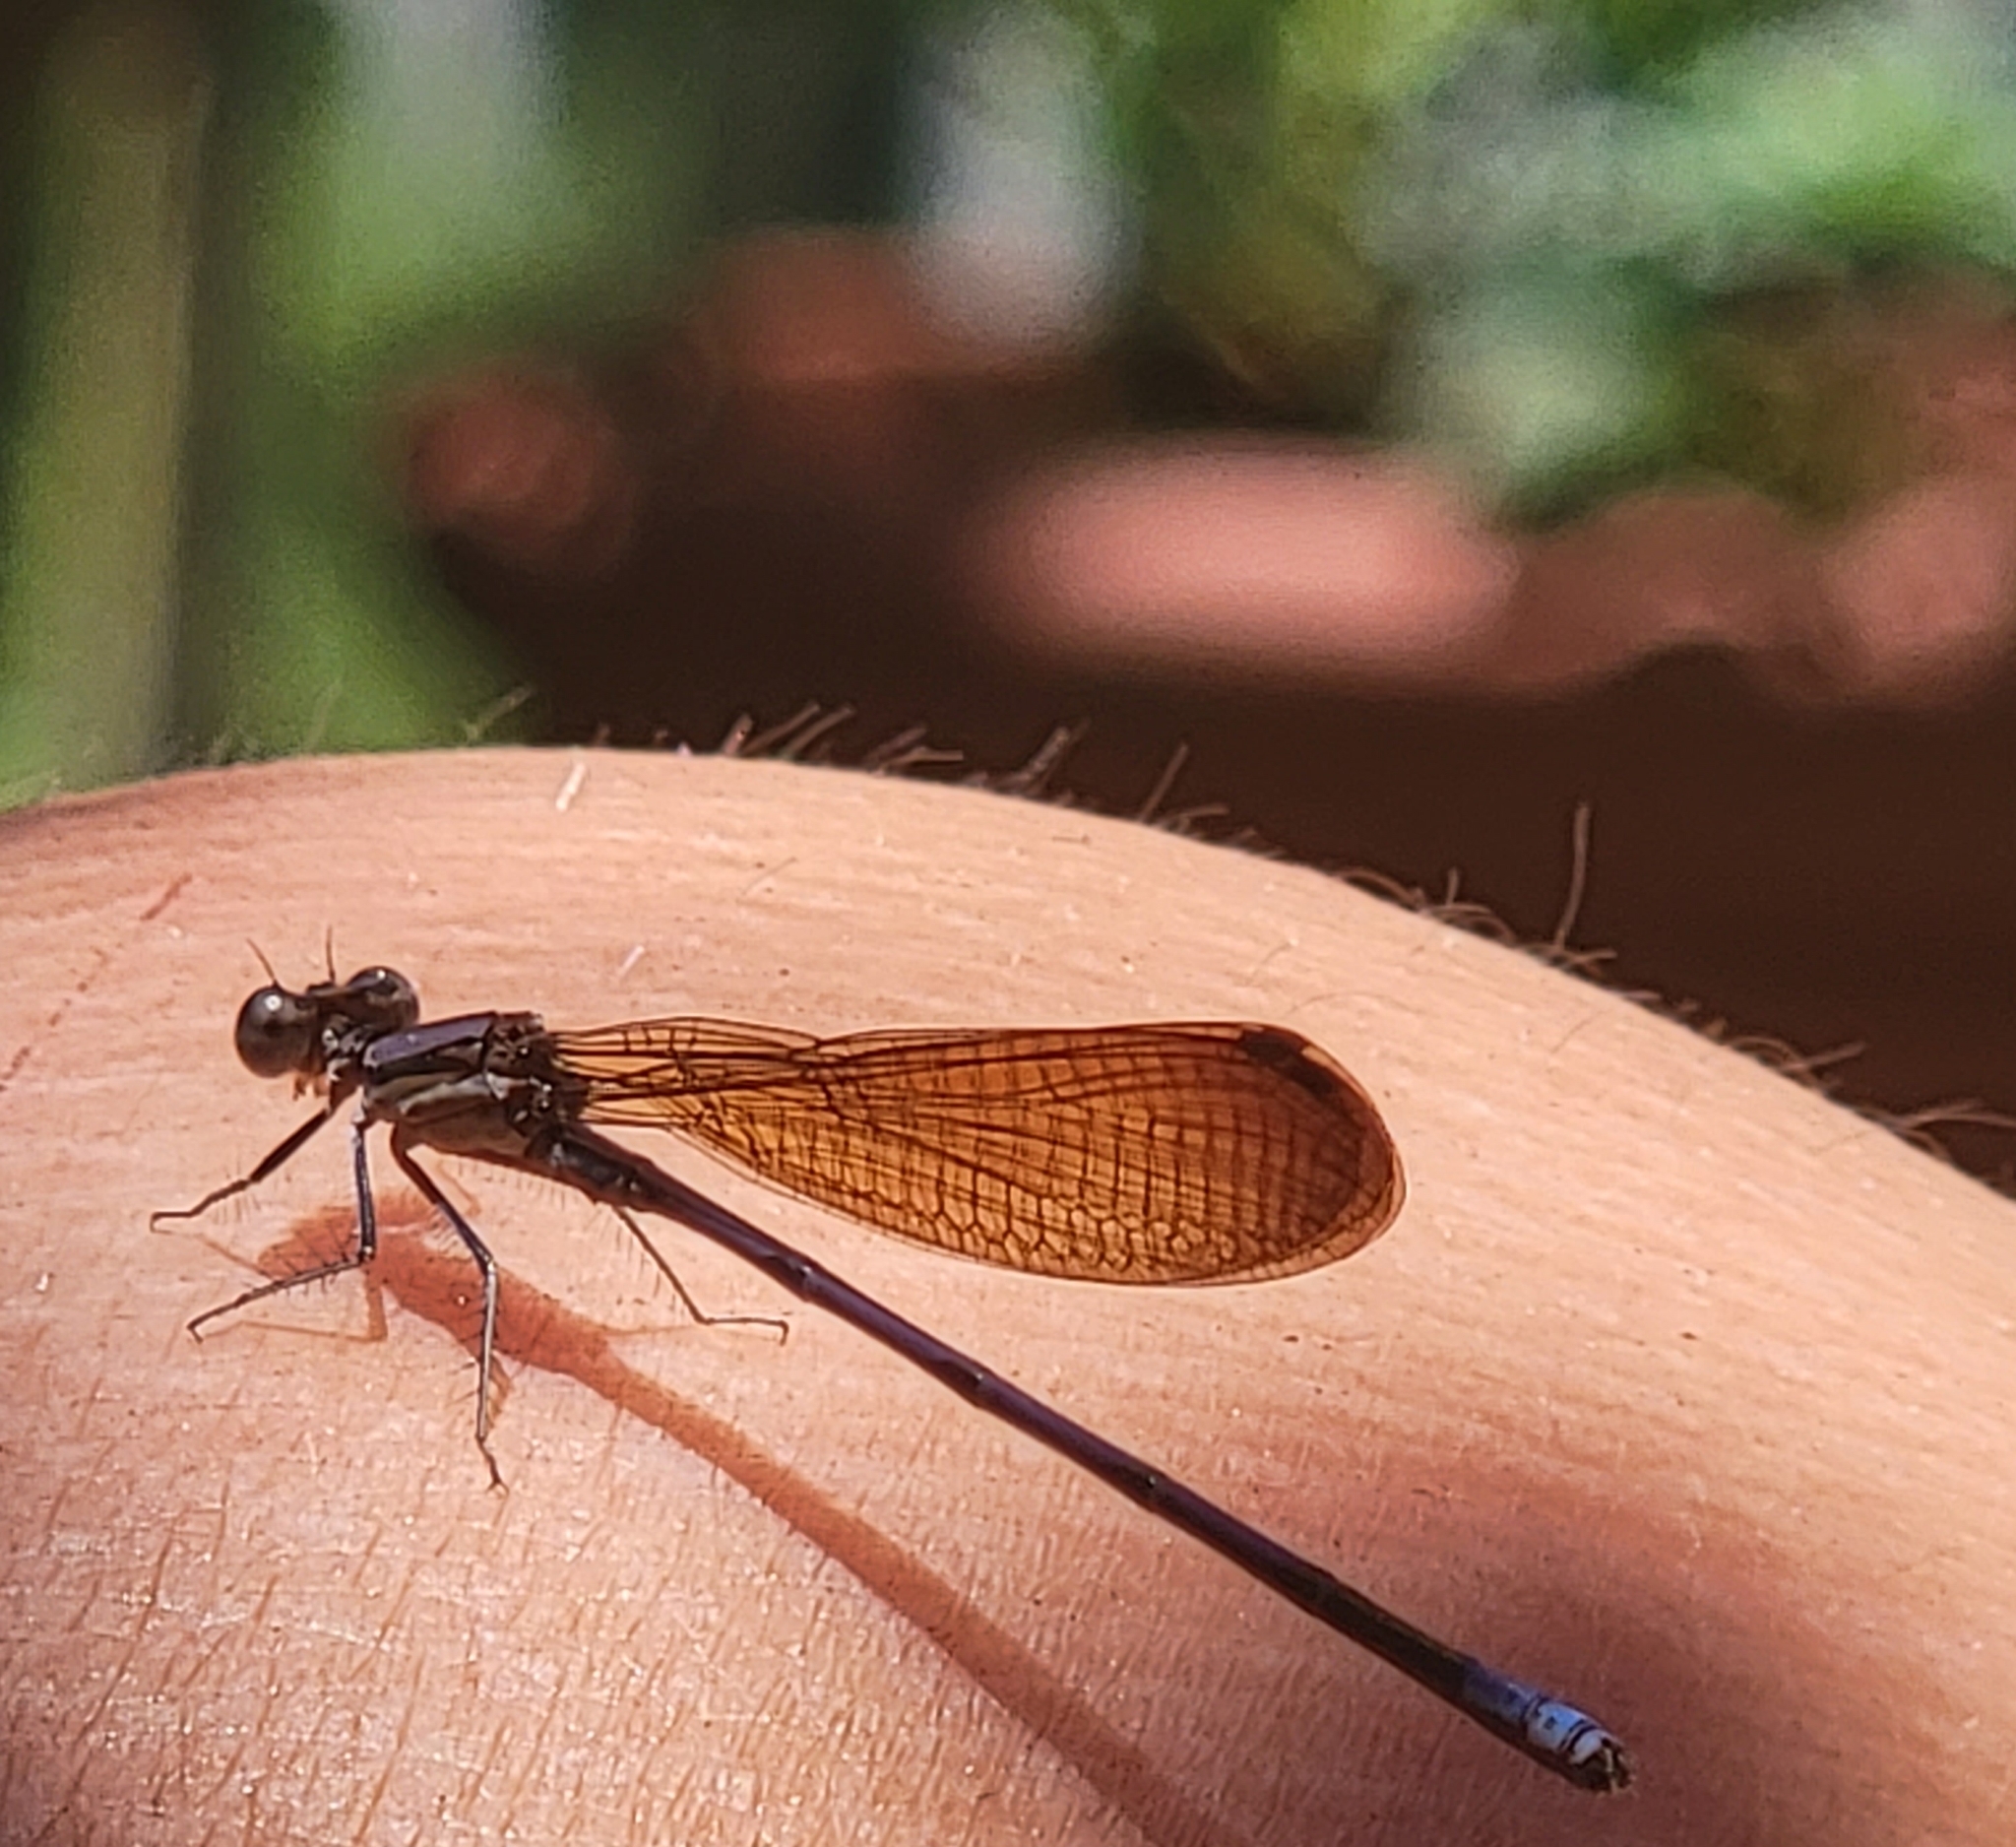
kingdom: Animalia
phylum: Arthropoda
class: Insecta
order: Odonata
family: Coenagrionidae
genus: Argia
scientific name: Argia fumipennis
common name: Variable dancer
